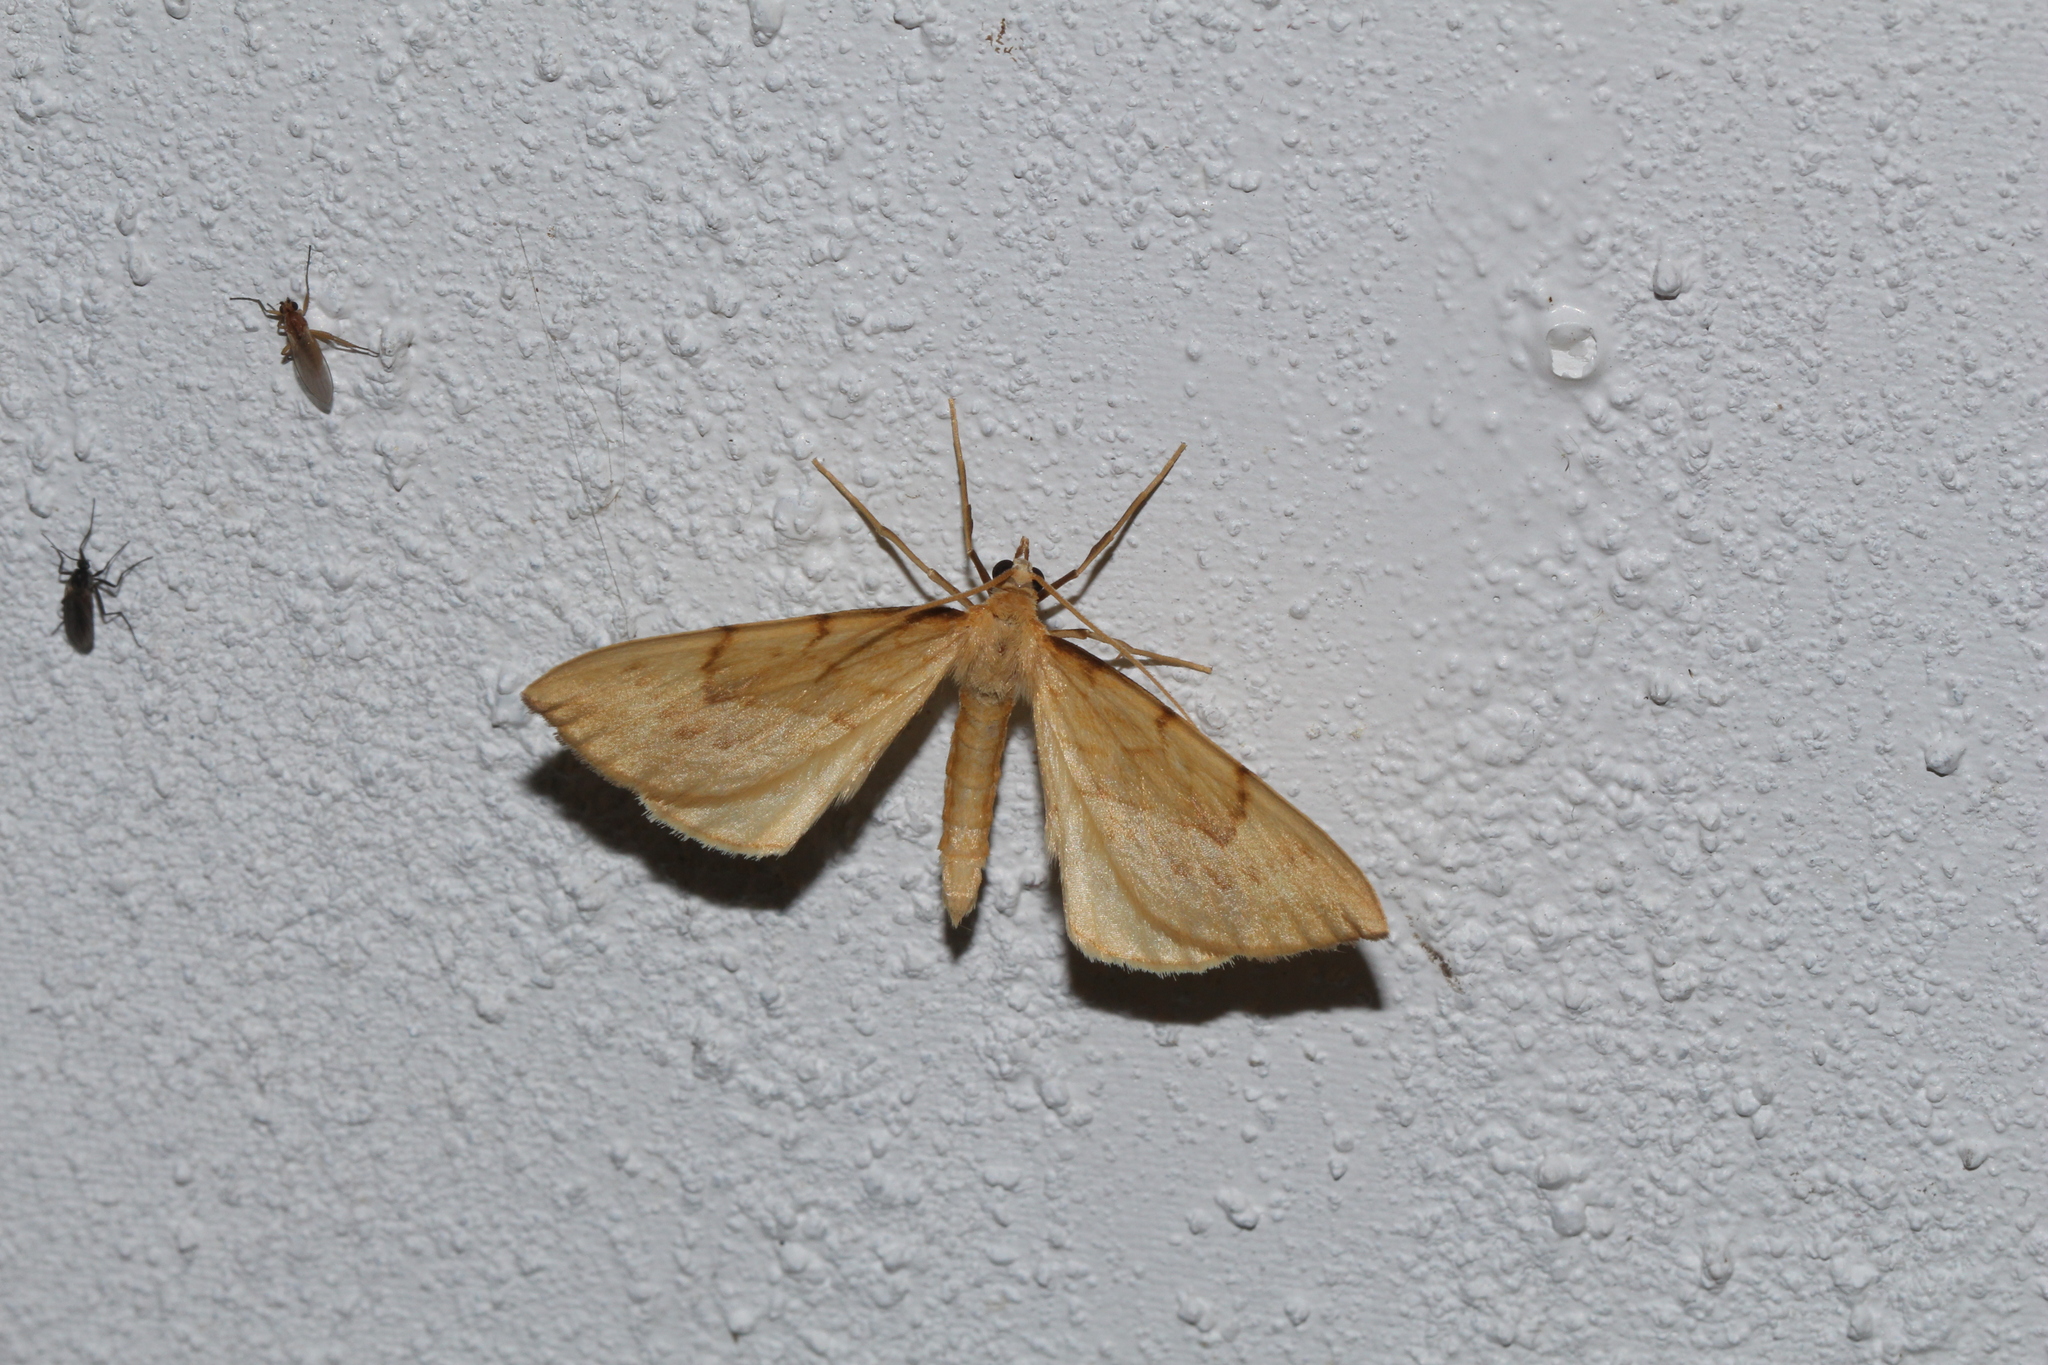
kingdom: Animalia
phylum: Arthropoda
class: Insecta
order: Lepidoptera
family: Geometridae
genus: Eulithis
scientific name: Eulithis pyraliata
